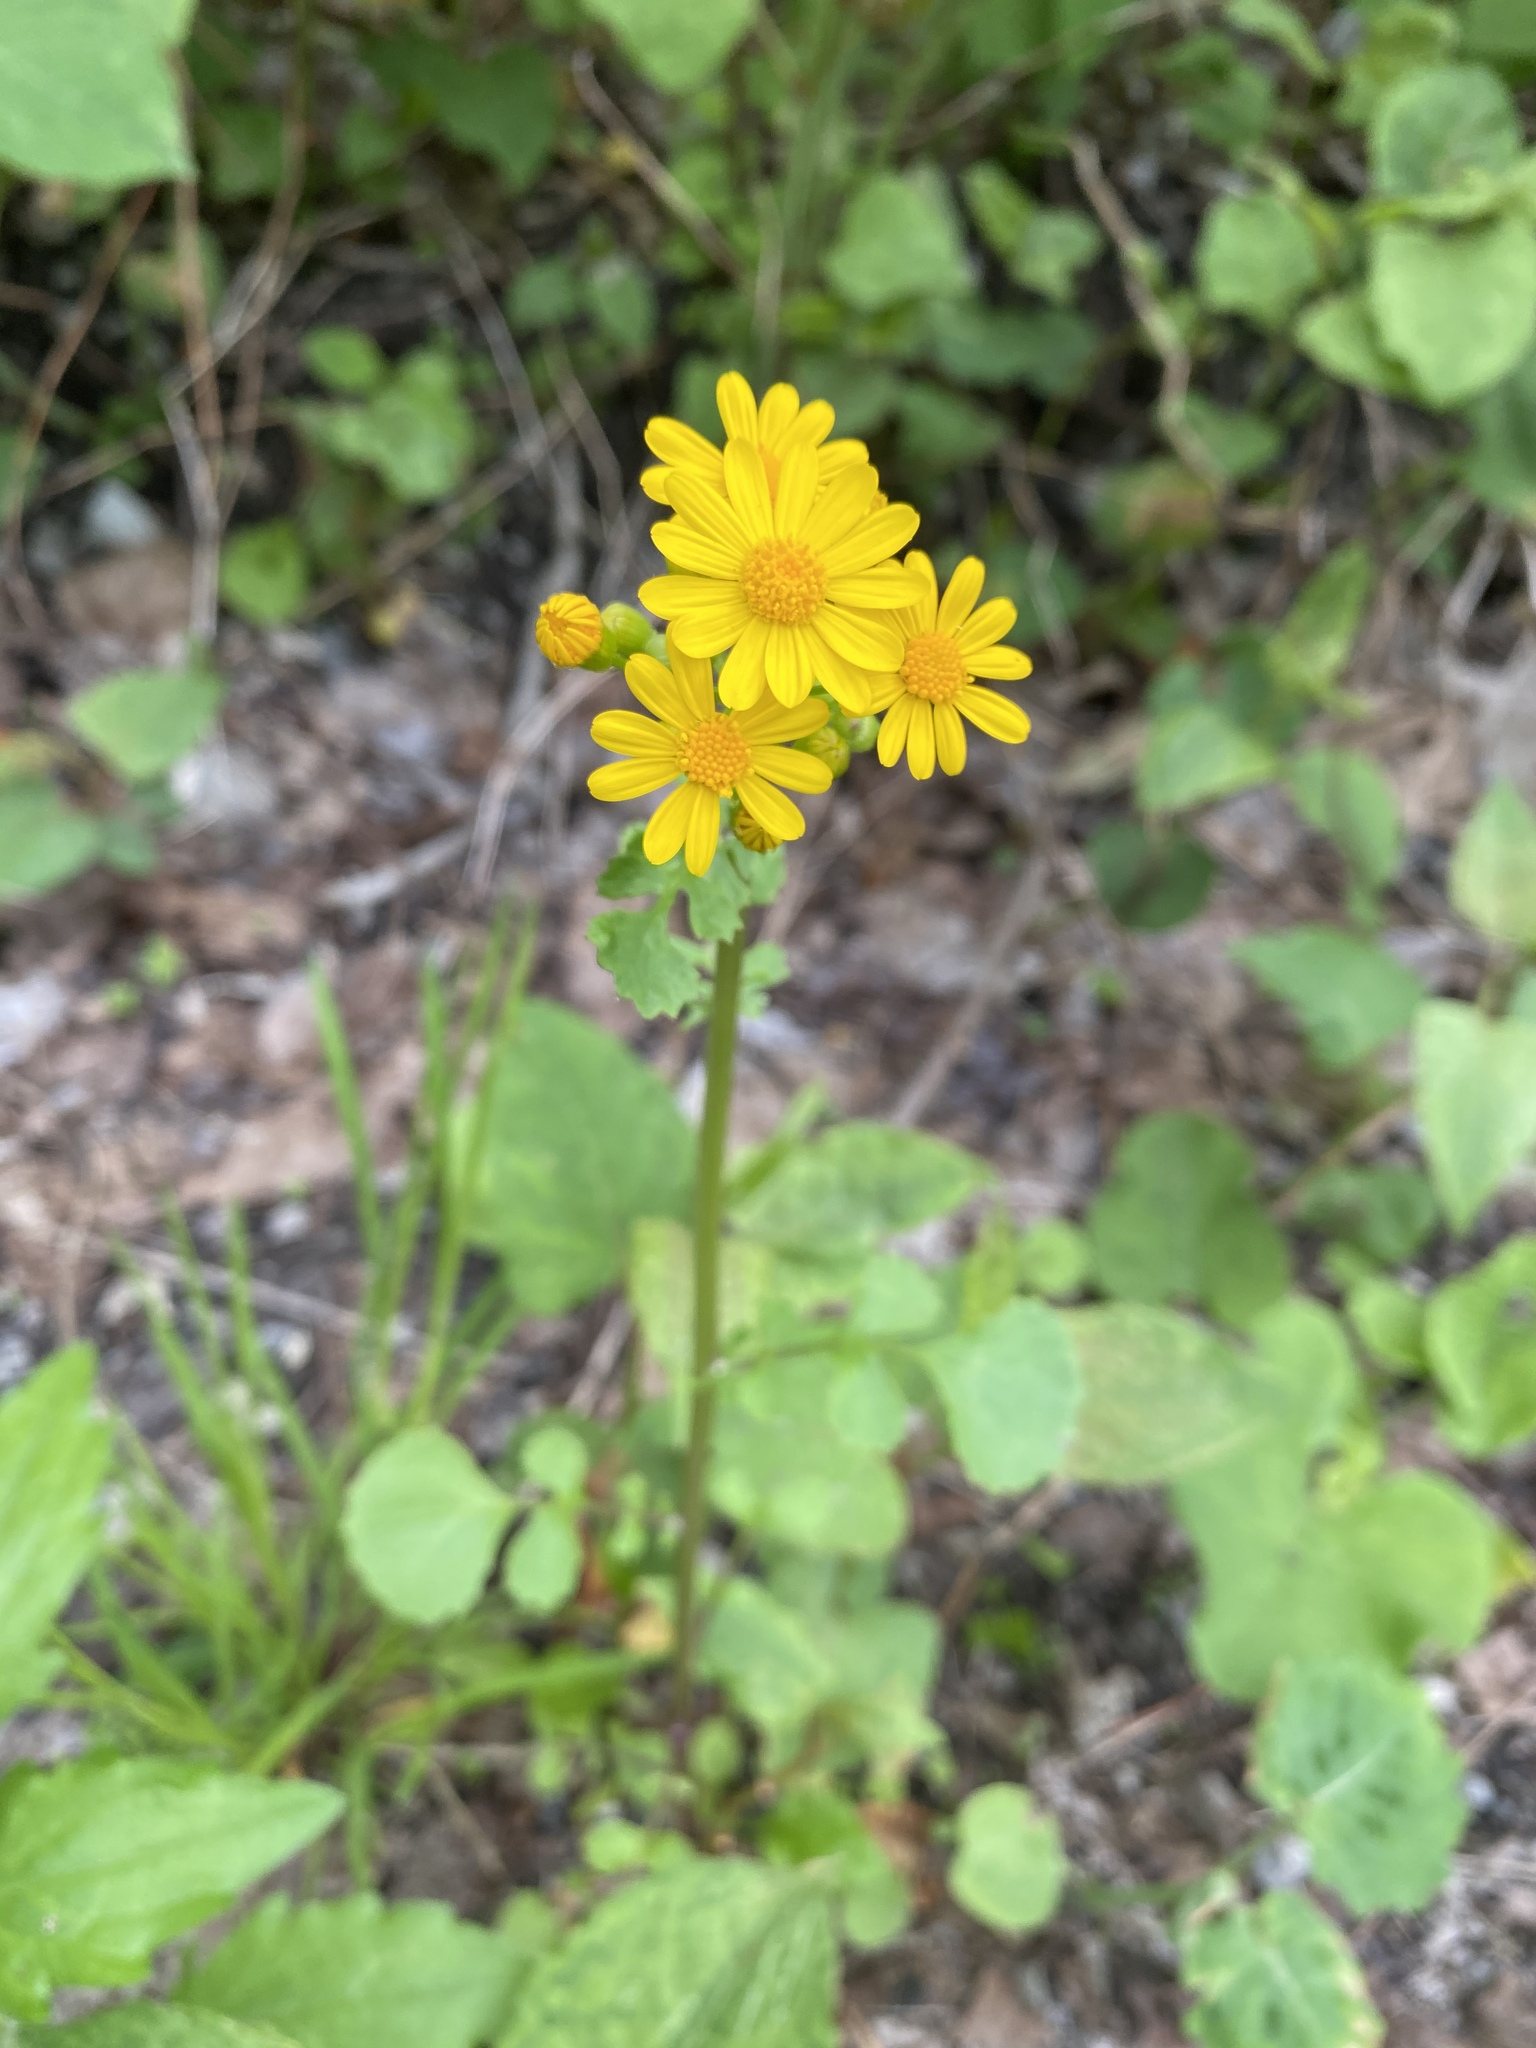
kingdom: Plantae
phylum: Tracheophyta
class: Magnoliopsida
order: Asterales
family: Asteraceae
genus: Packera
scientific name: Packera glabella
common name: Butterweed
